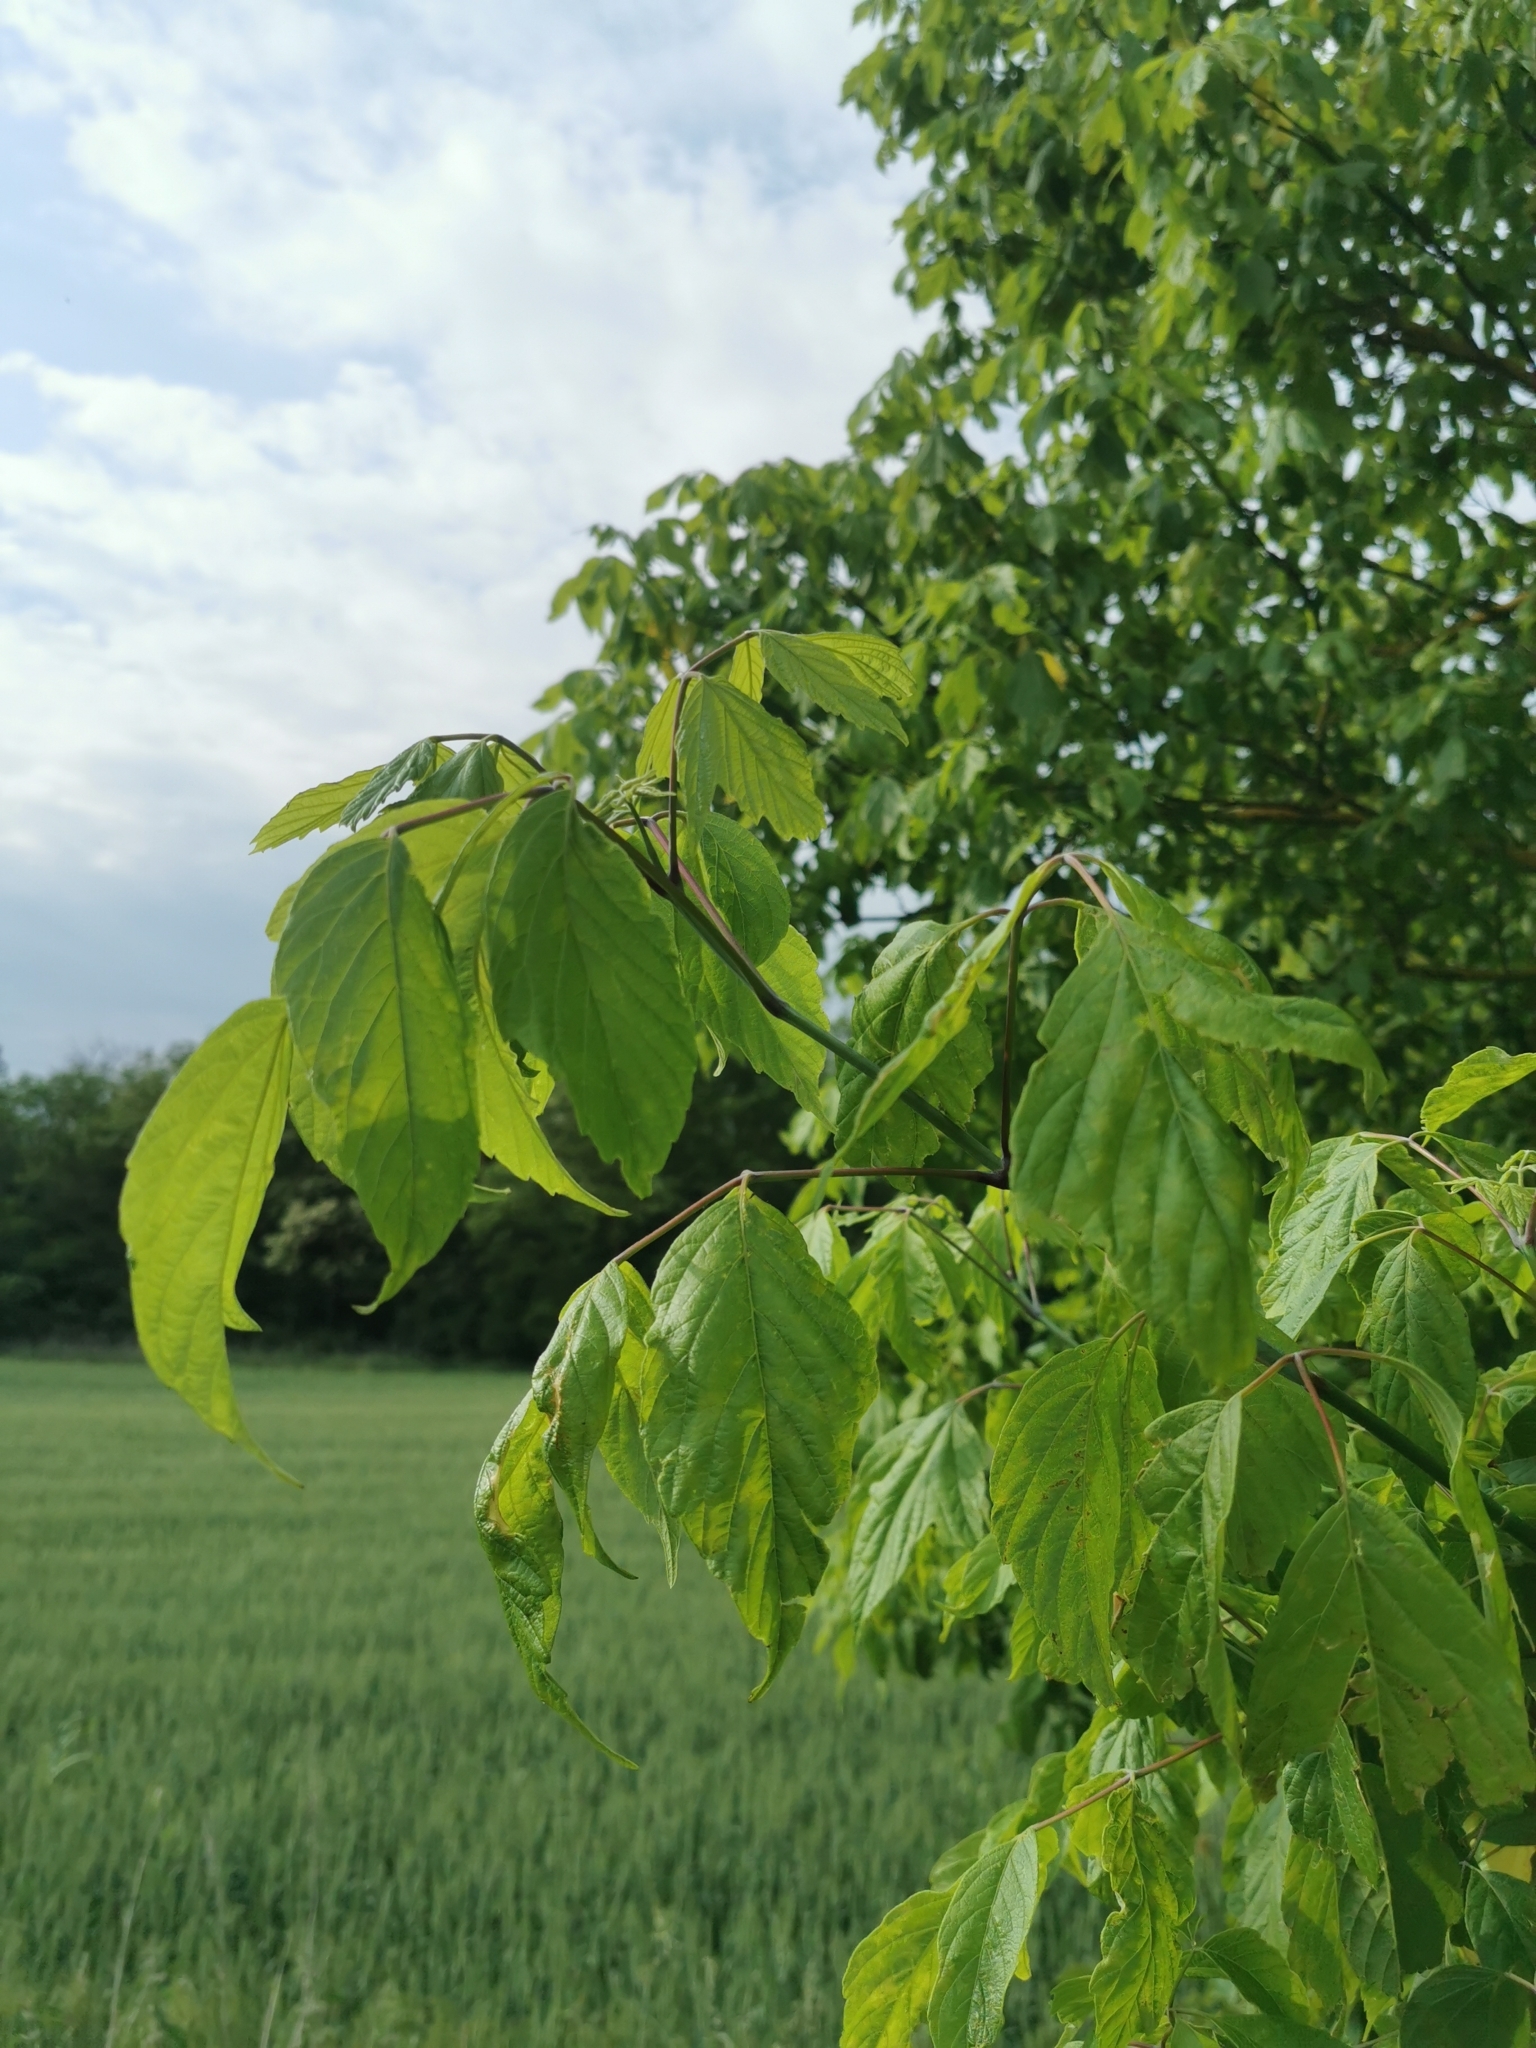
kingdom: Plantae
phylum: Tracheophyta
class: Magnoliopsida
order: Sapindales
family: Sapindaceae
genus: Acer
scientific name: Acer negundo
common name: Ashleaf maple
